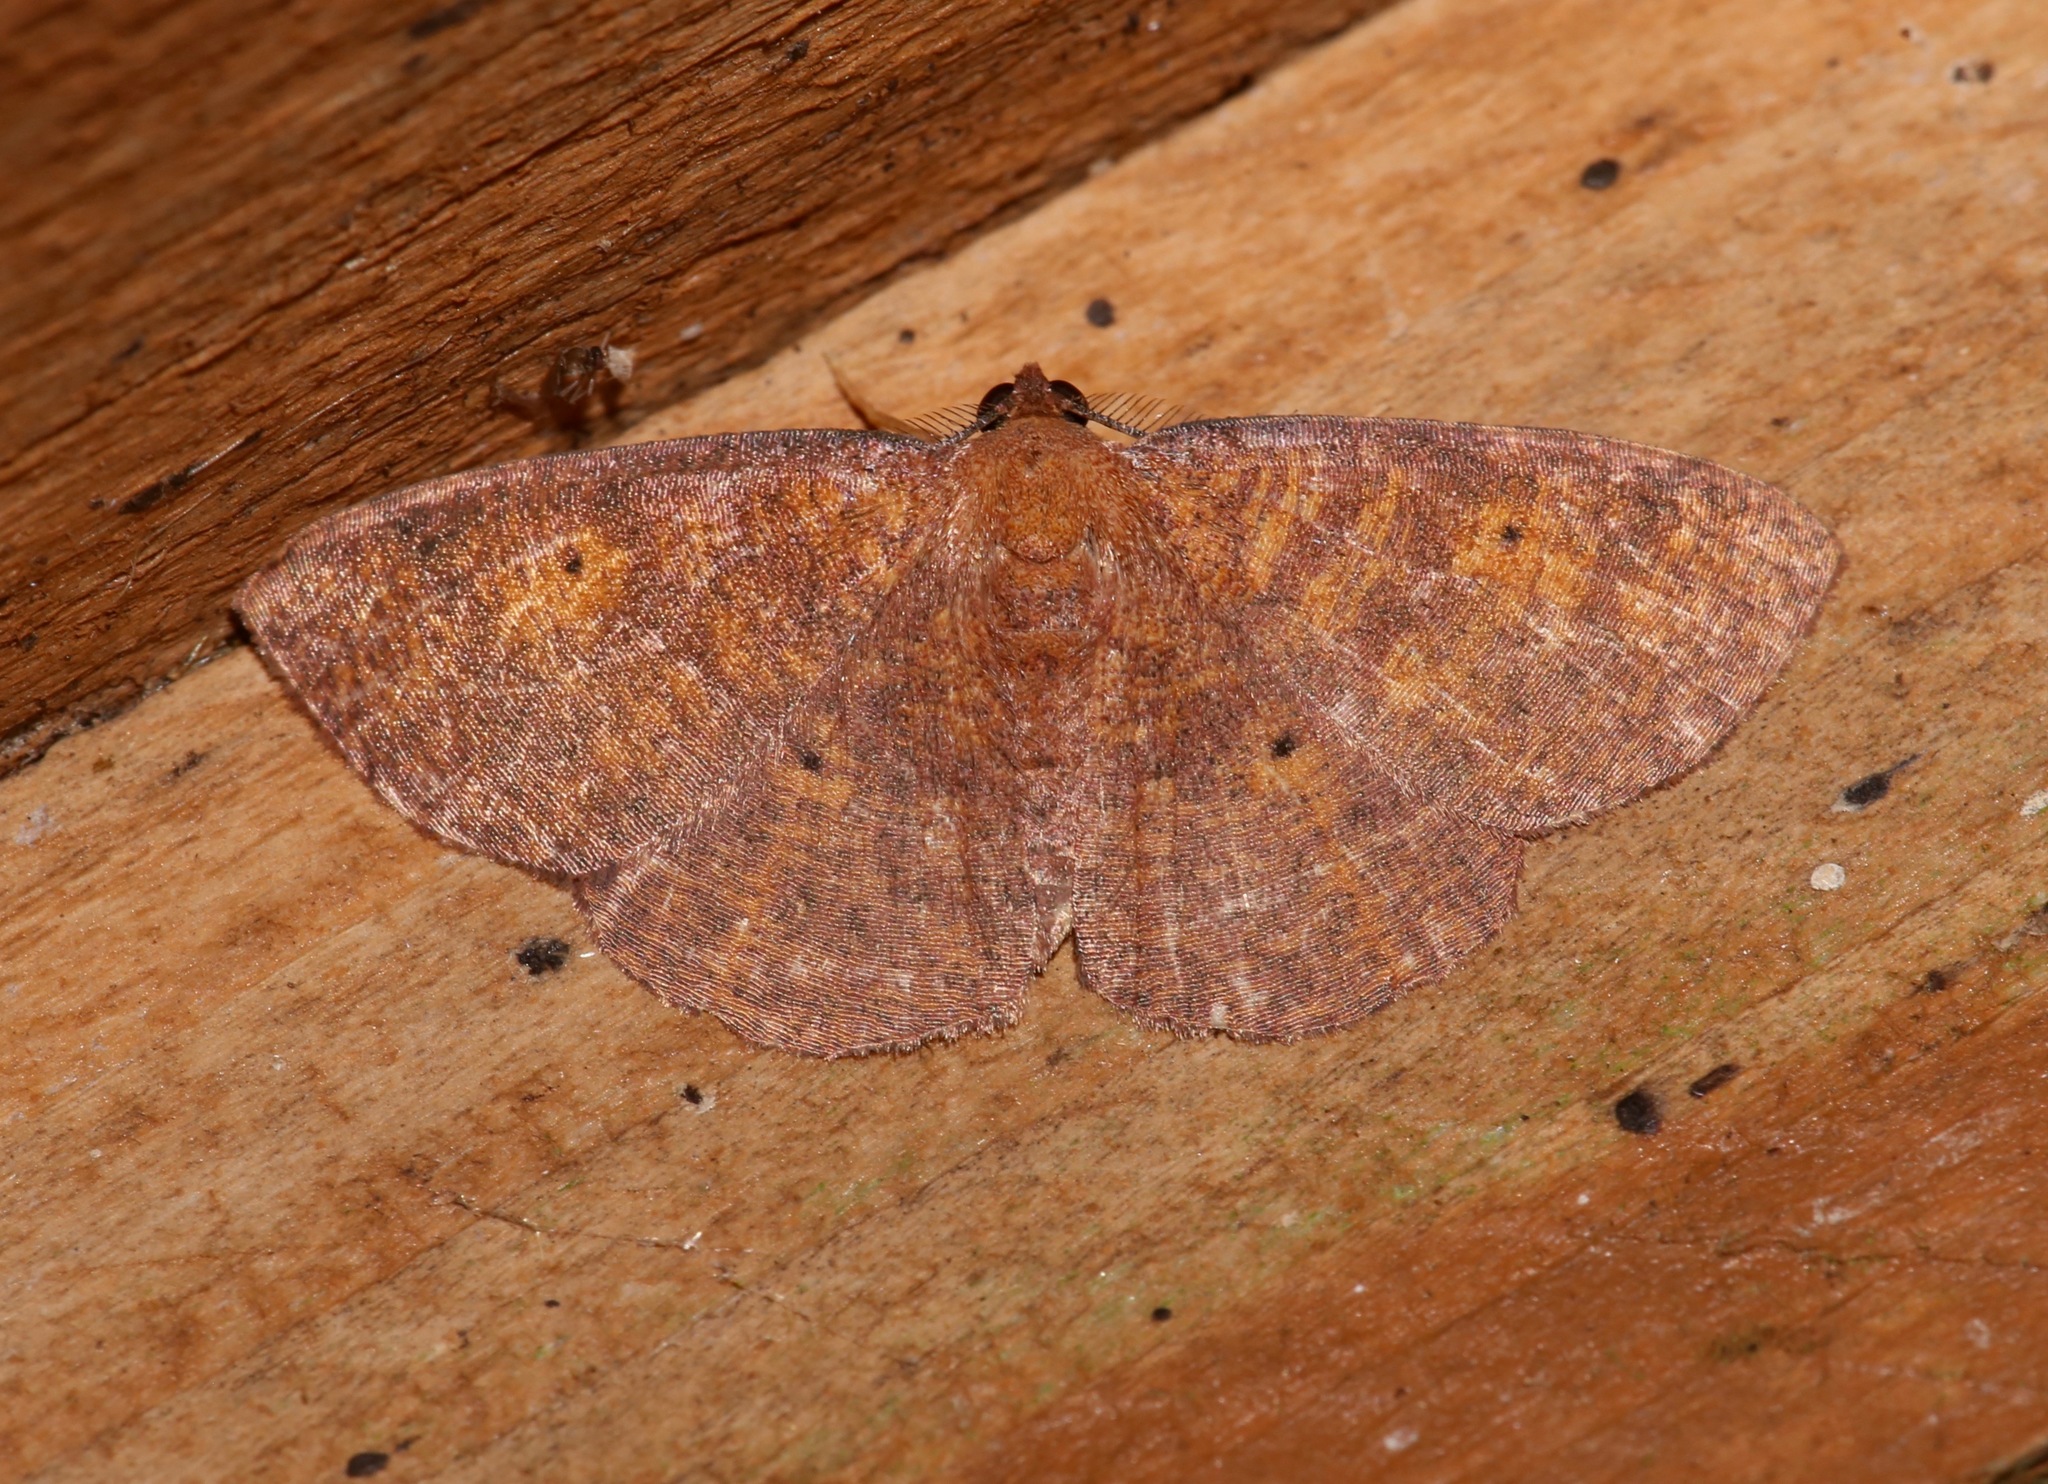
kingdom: Animalia
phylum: Arthropoda
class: Insecta
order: Lepidoptera
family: Geometridae
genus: Ilexia
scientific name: Ilexia intractata
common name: Black-dotted ruddy moth
